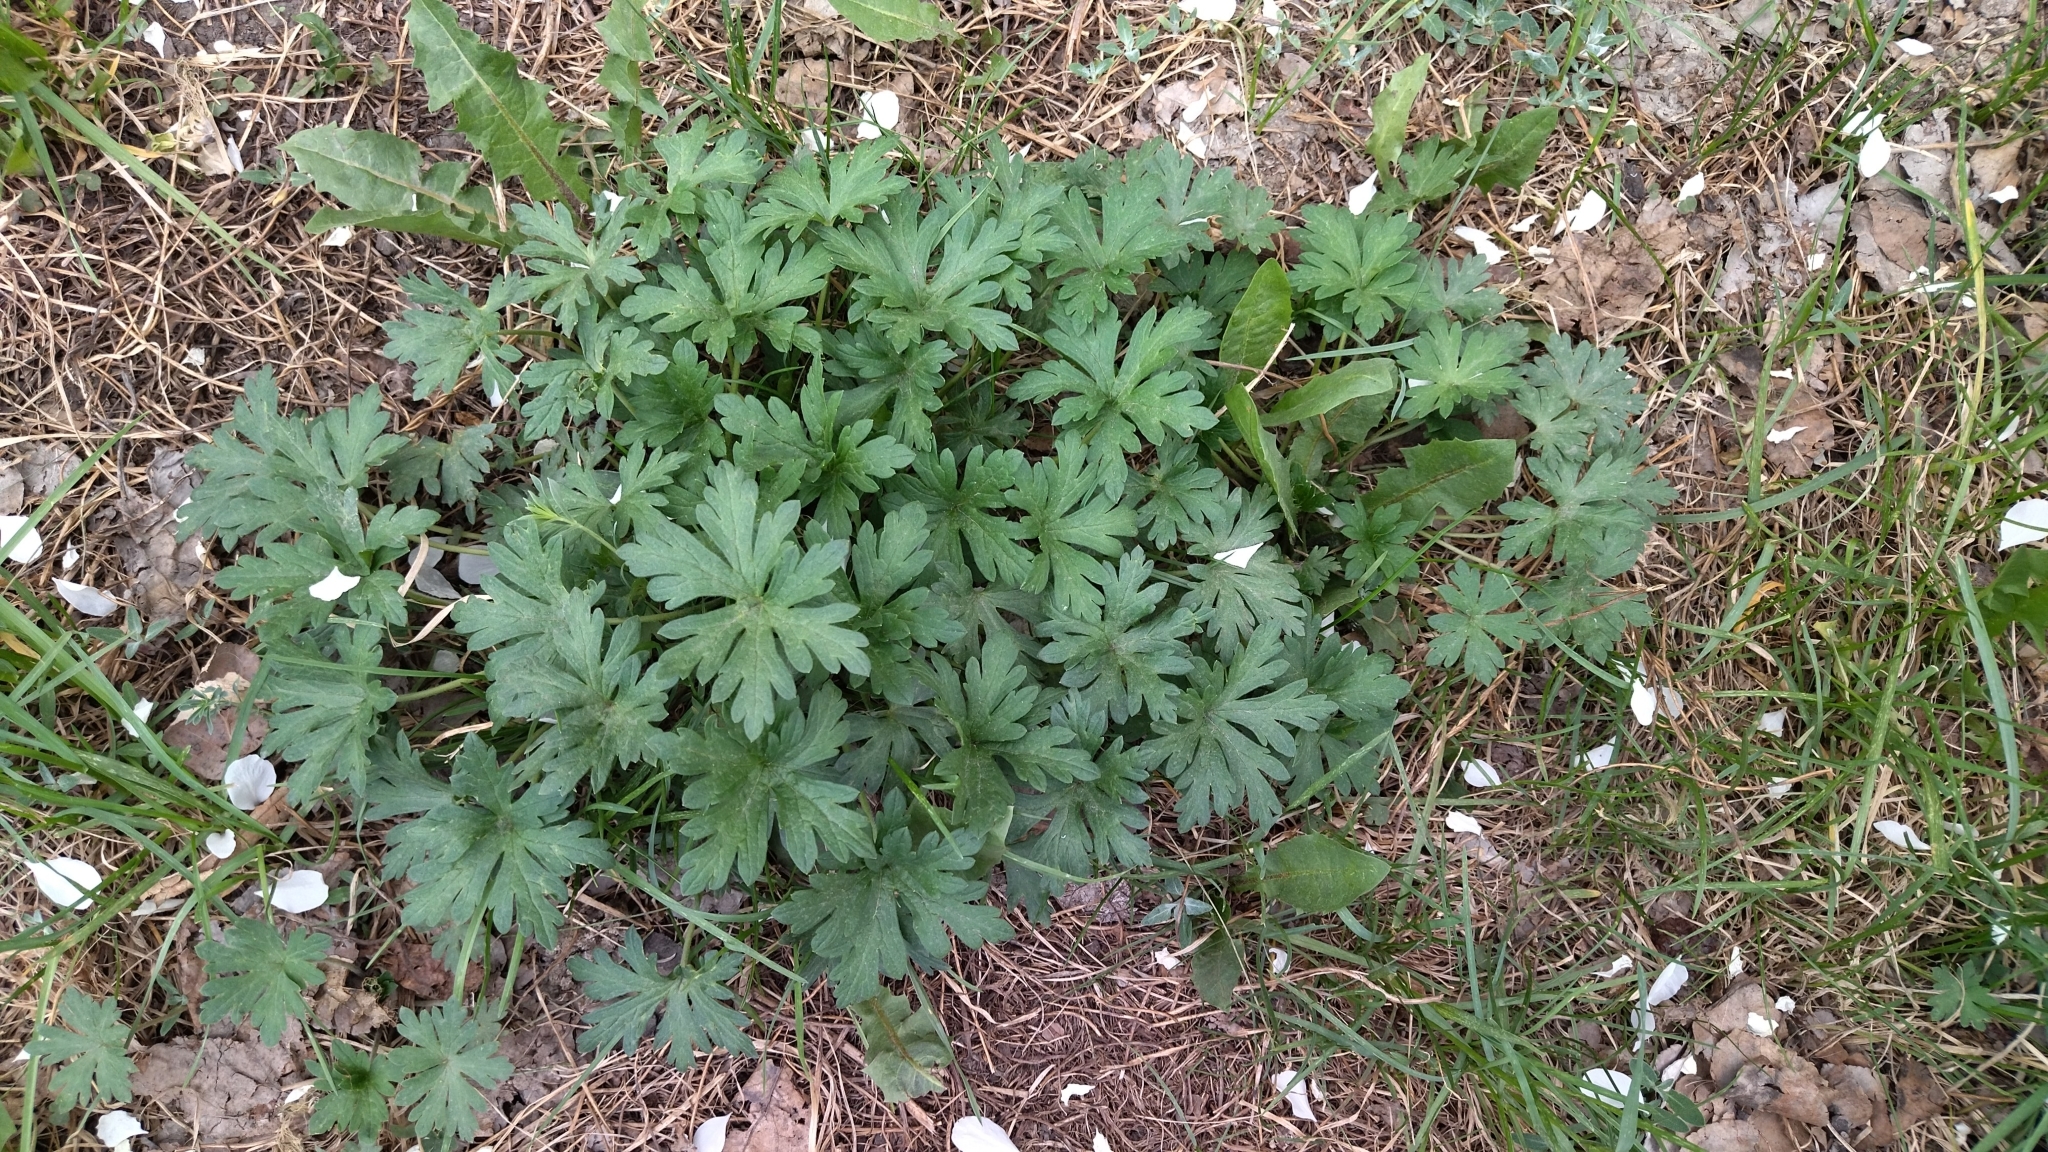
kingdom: Plantae
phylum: Tracheophyta
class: Magnoliopsida
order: Geraniales
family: Geraniaceae
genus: Geranium
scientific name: Geranium sibiricum
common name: Siberian crane's-bill
